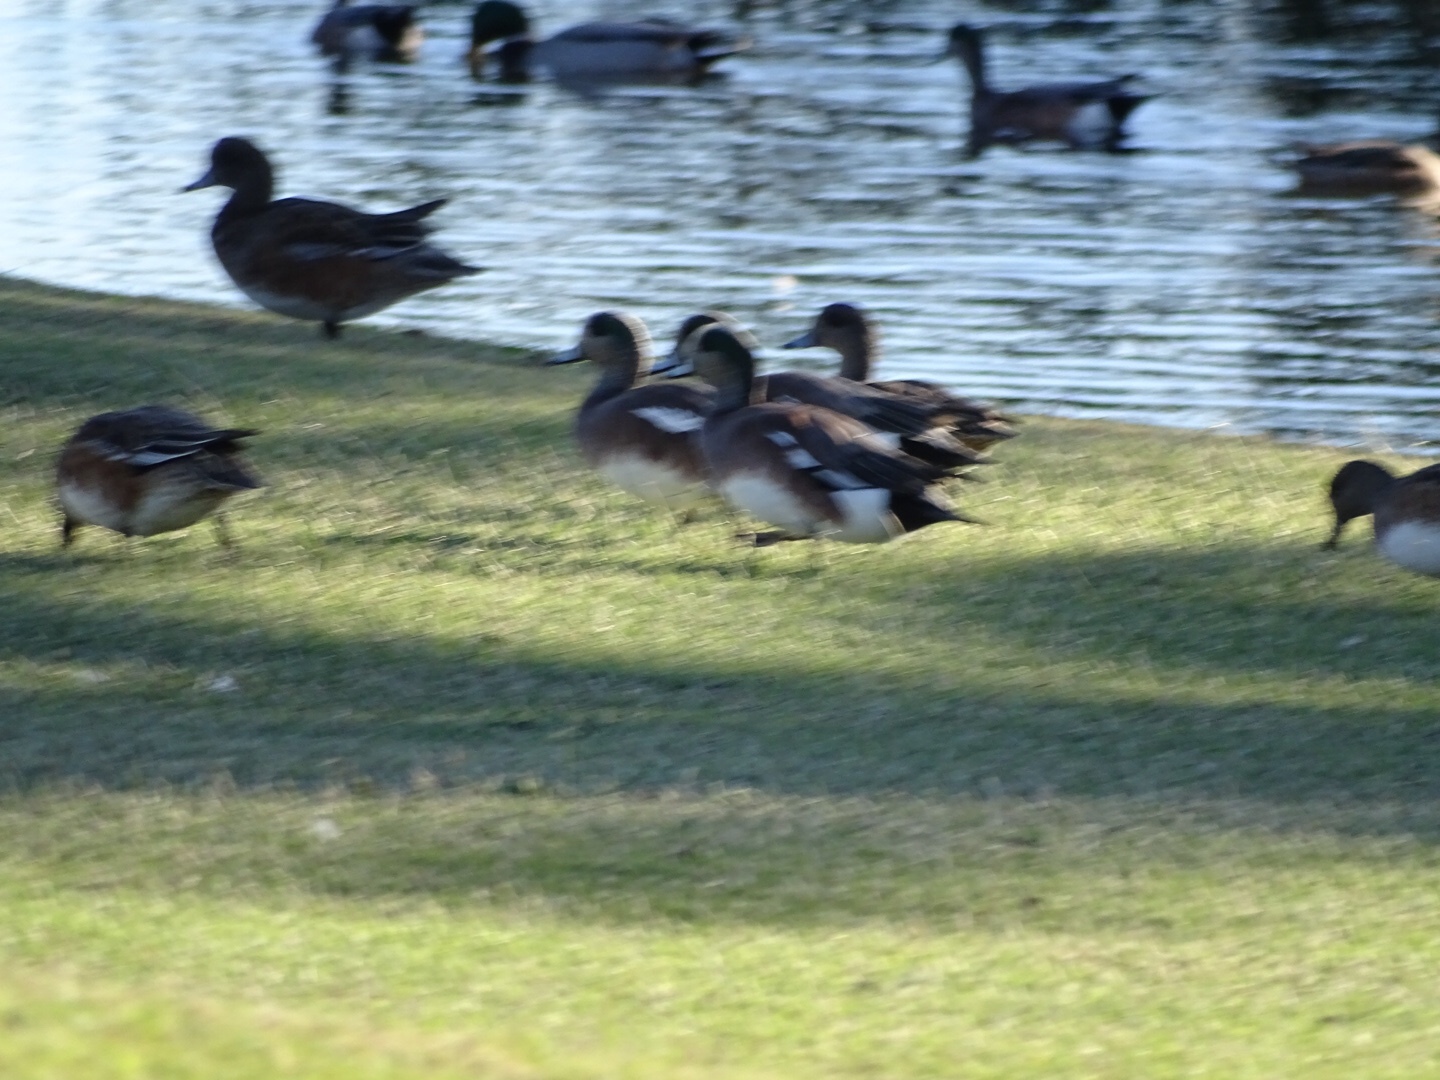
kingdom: Animalia
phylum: Chordata
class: Aves
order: Anseriformes
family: Anatidae
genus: Mareca
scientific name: Mareca americana
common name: American wigeon
